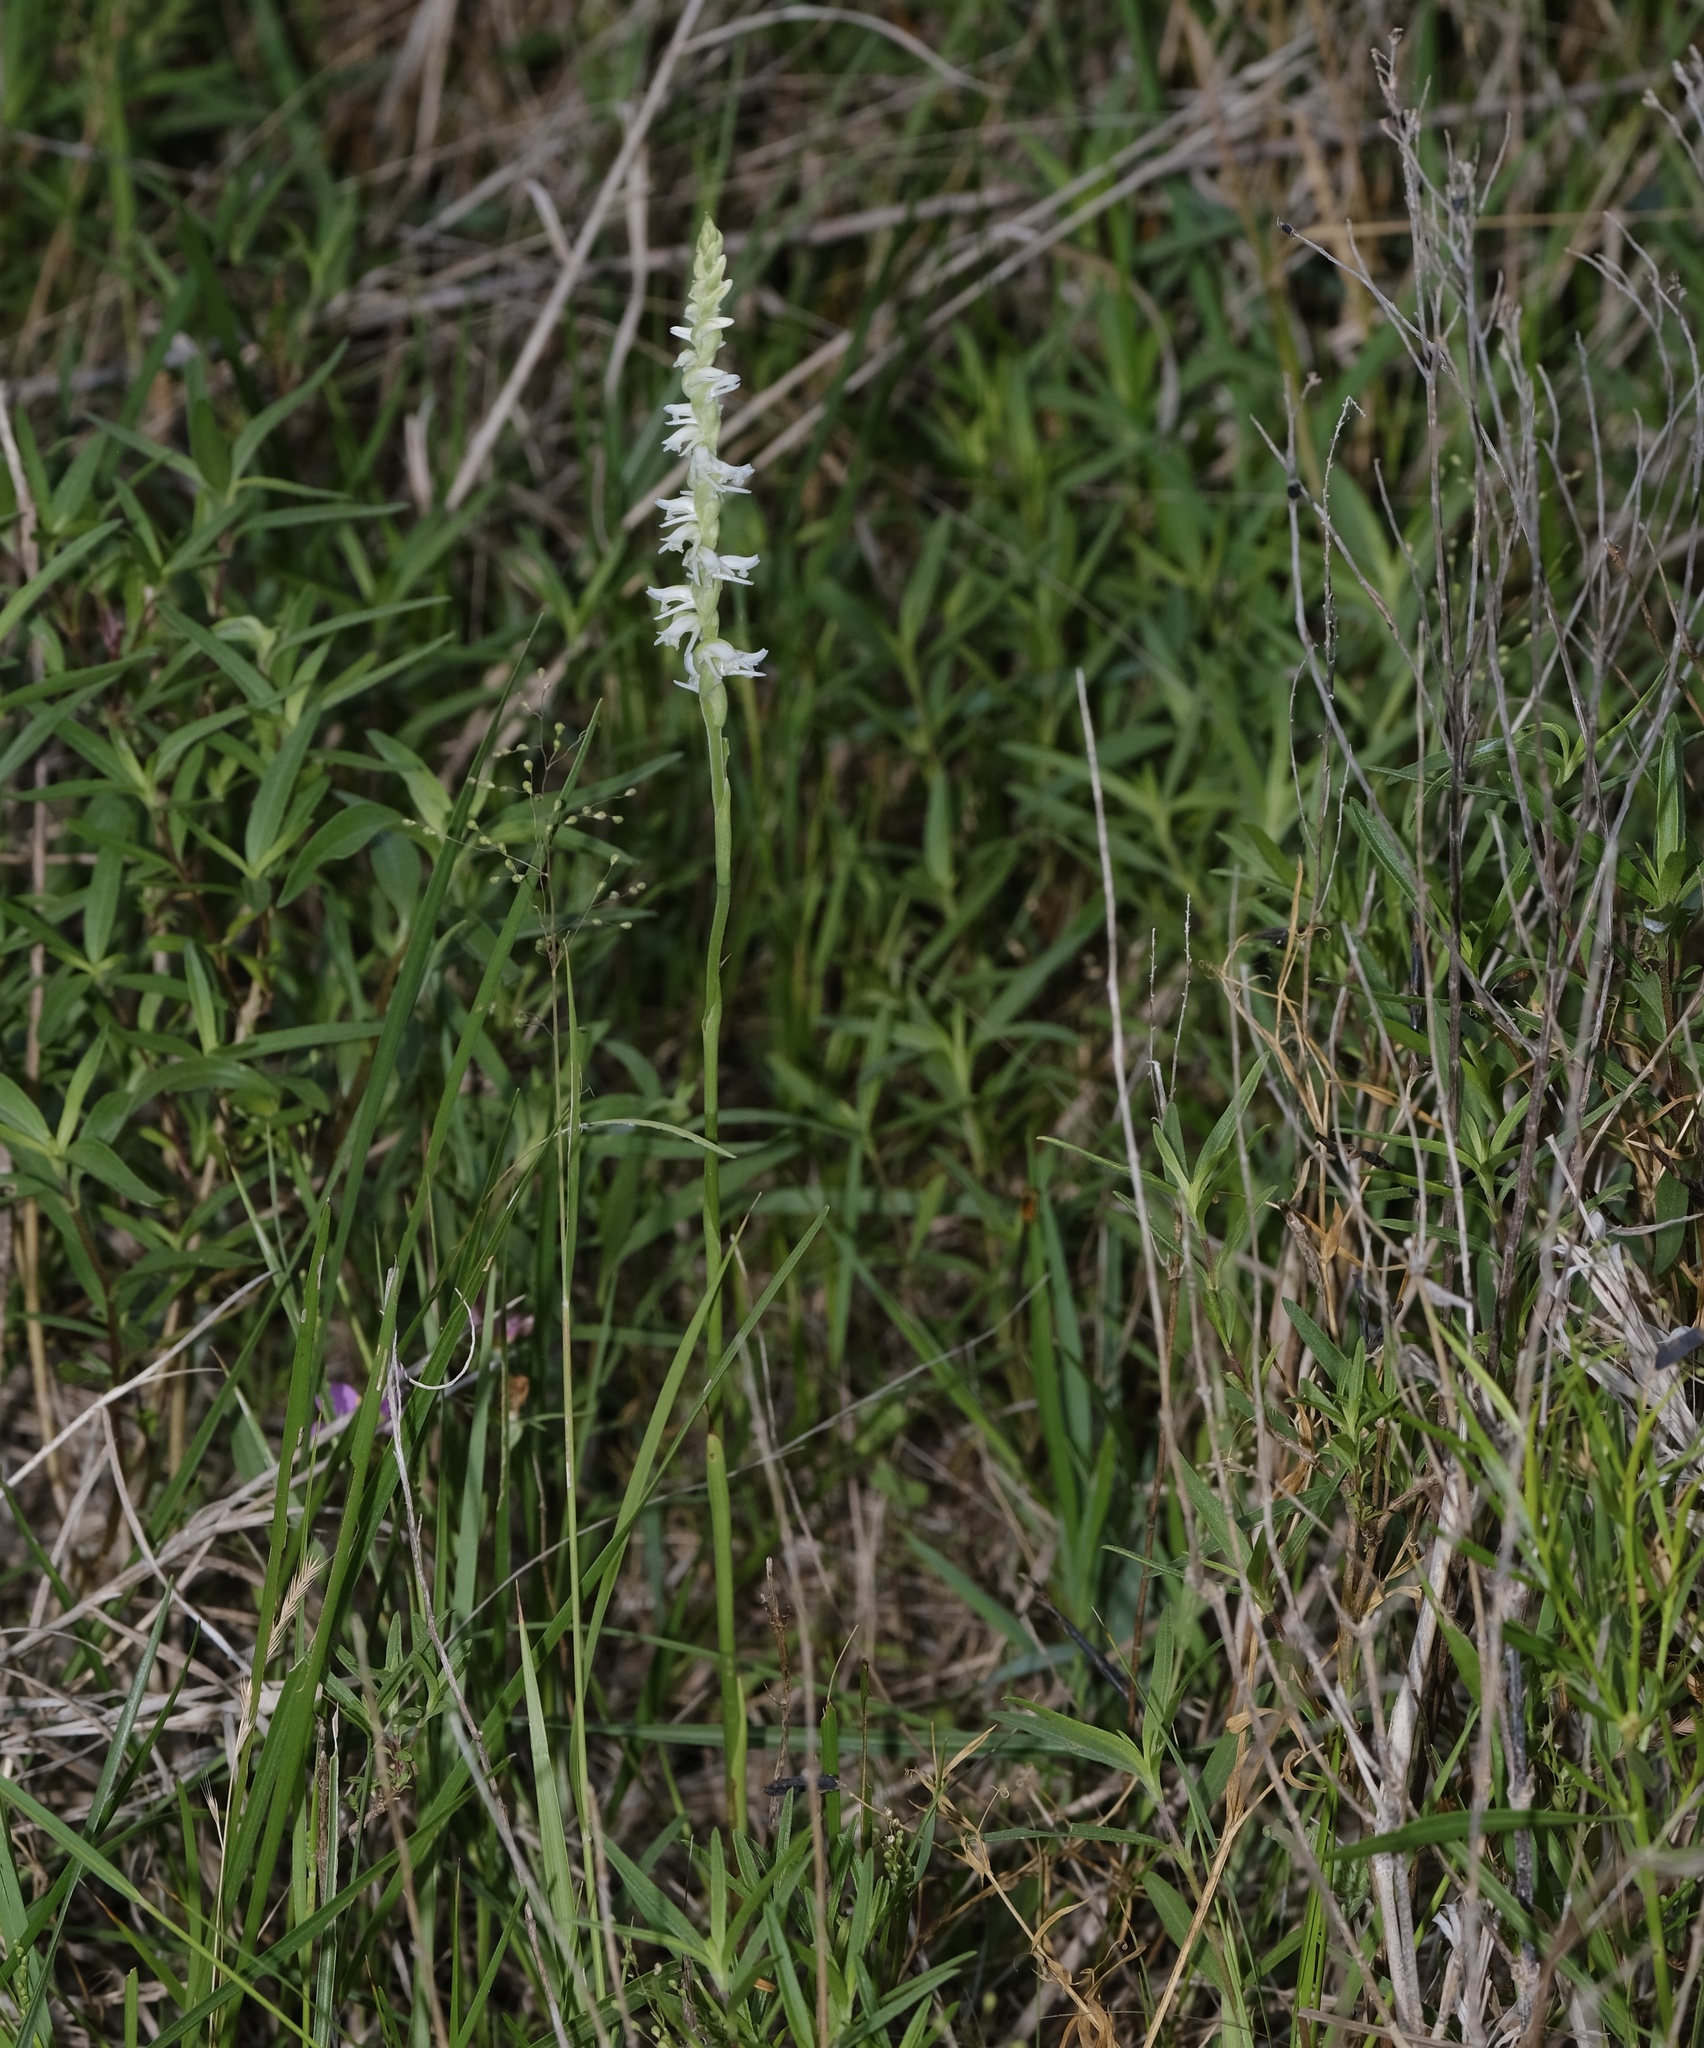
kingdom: Plantae
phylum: Tracheophyta
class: Liliopsida
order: Asparagales
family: Orchidaceae
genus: Spiranthes
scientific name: Spiranthes vernalis
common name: Spring ladies'-tresses
